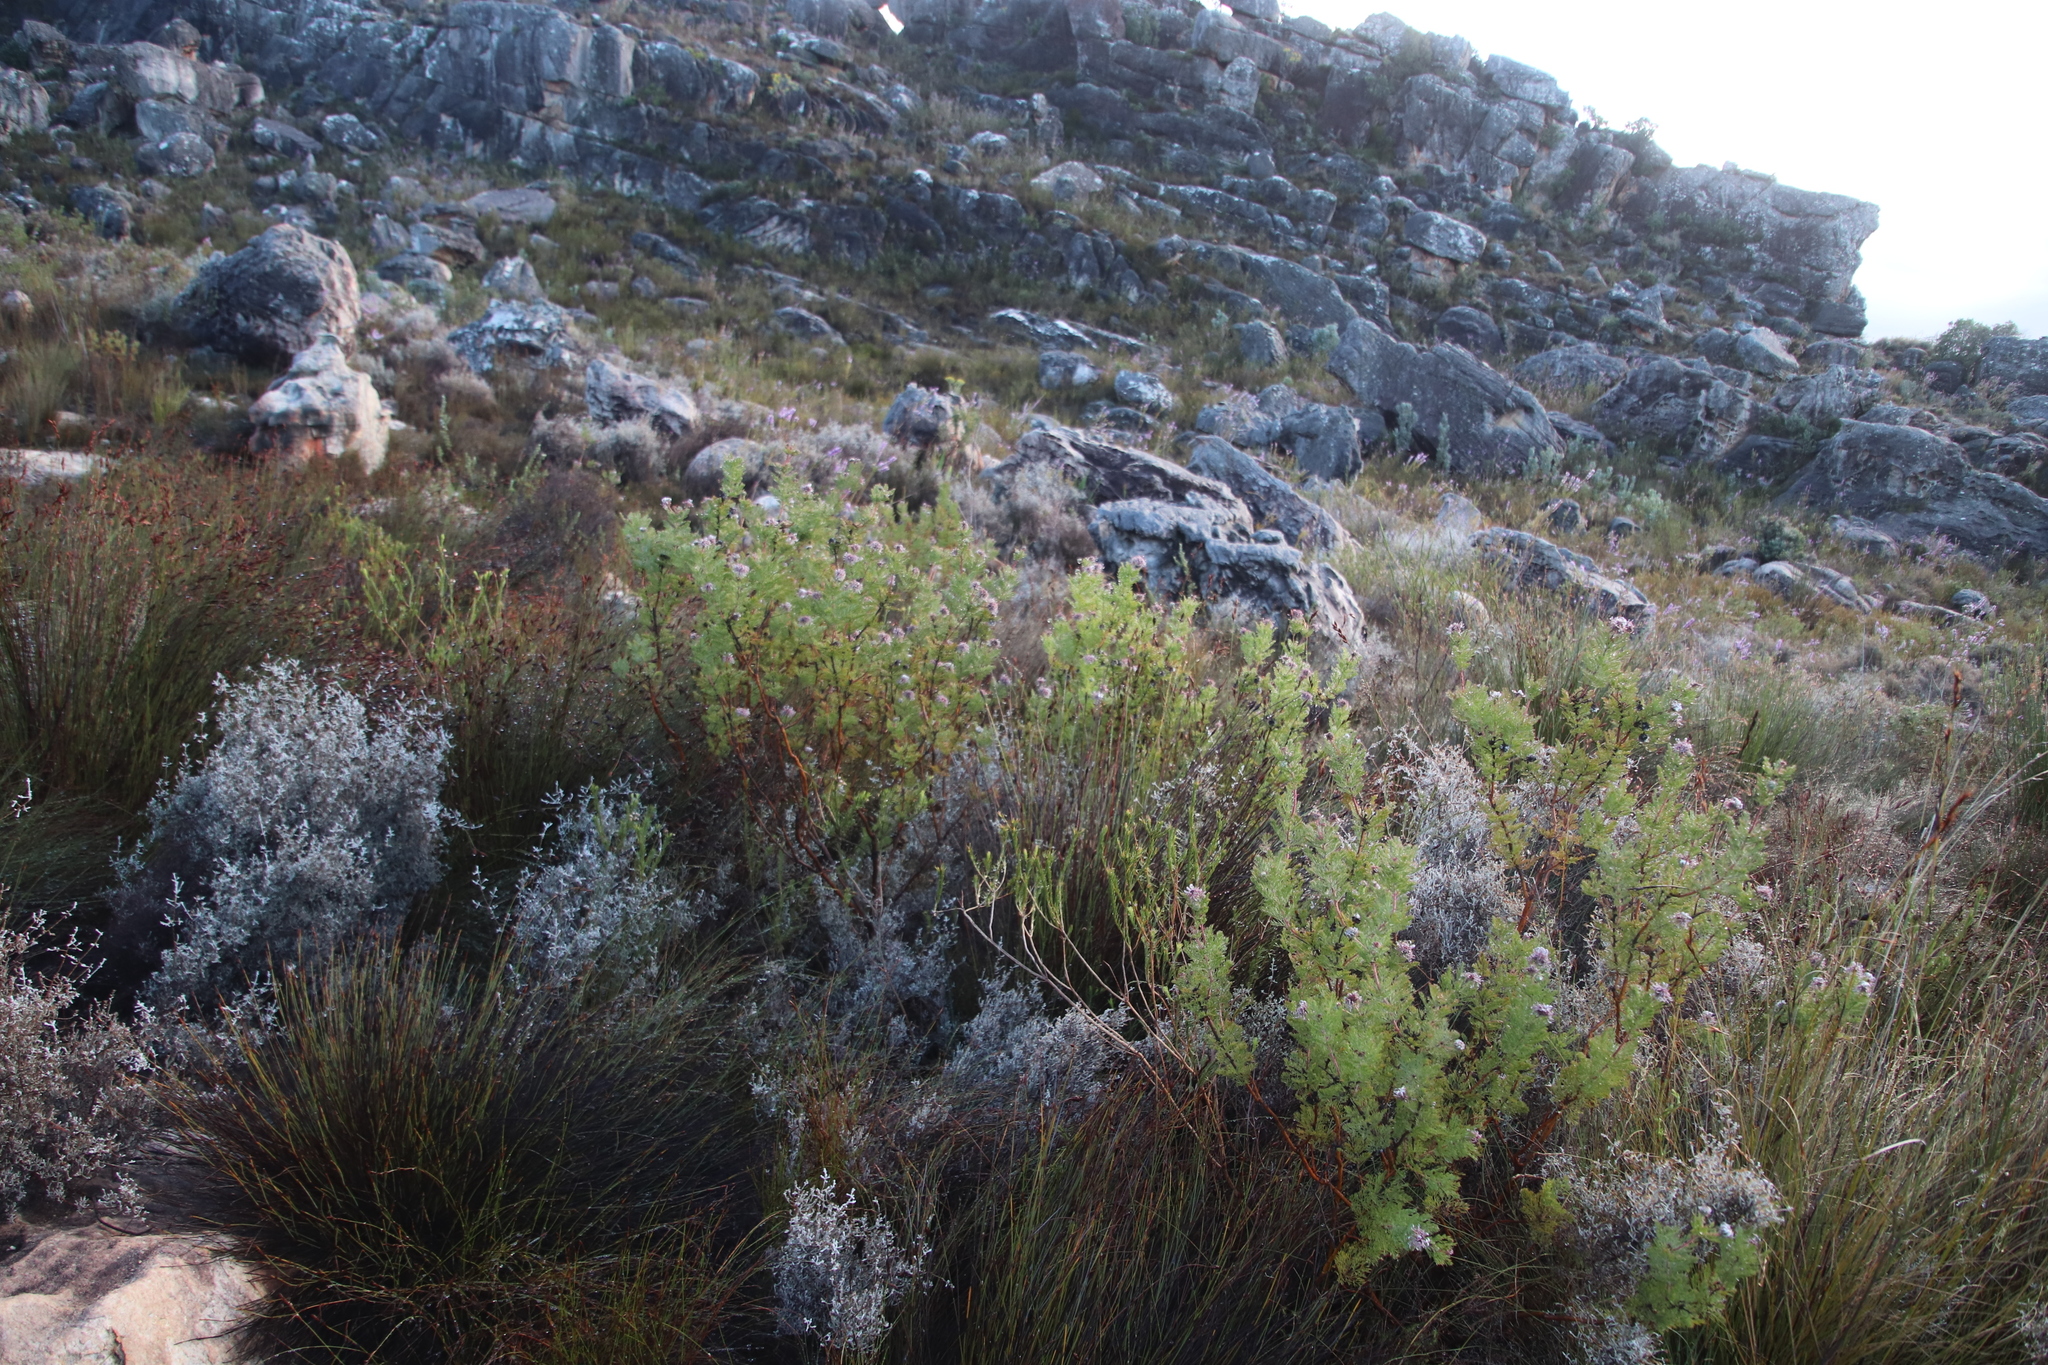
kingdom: Plantae
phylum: Tracheophyta
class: Magnoliopsida
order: Proteales
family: Proteaceae
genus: Serruria
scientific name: Serruria pedunculata
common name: Fan-leaf spiderhead
